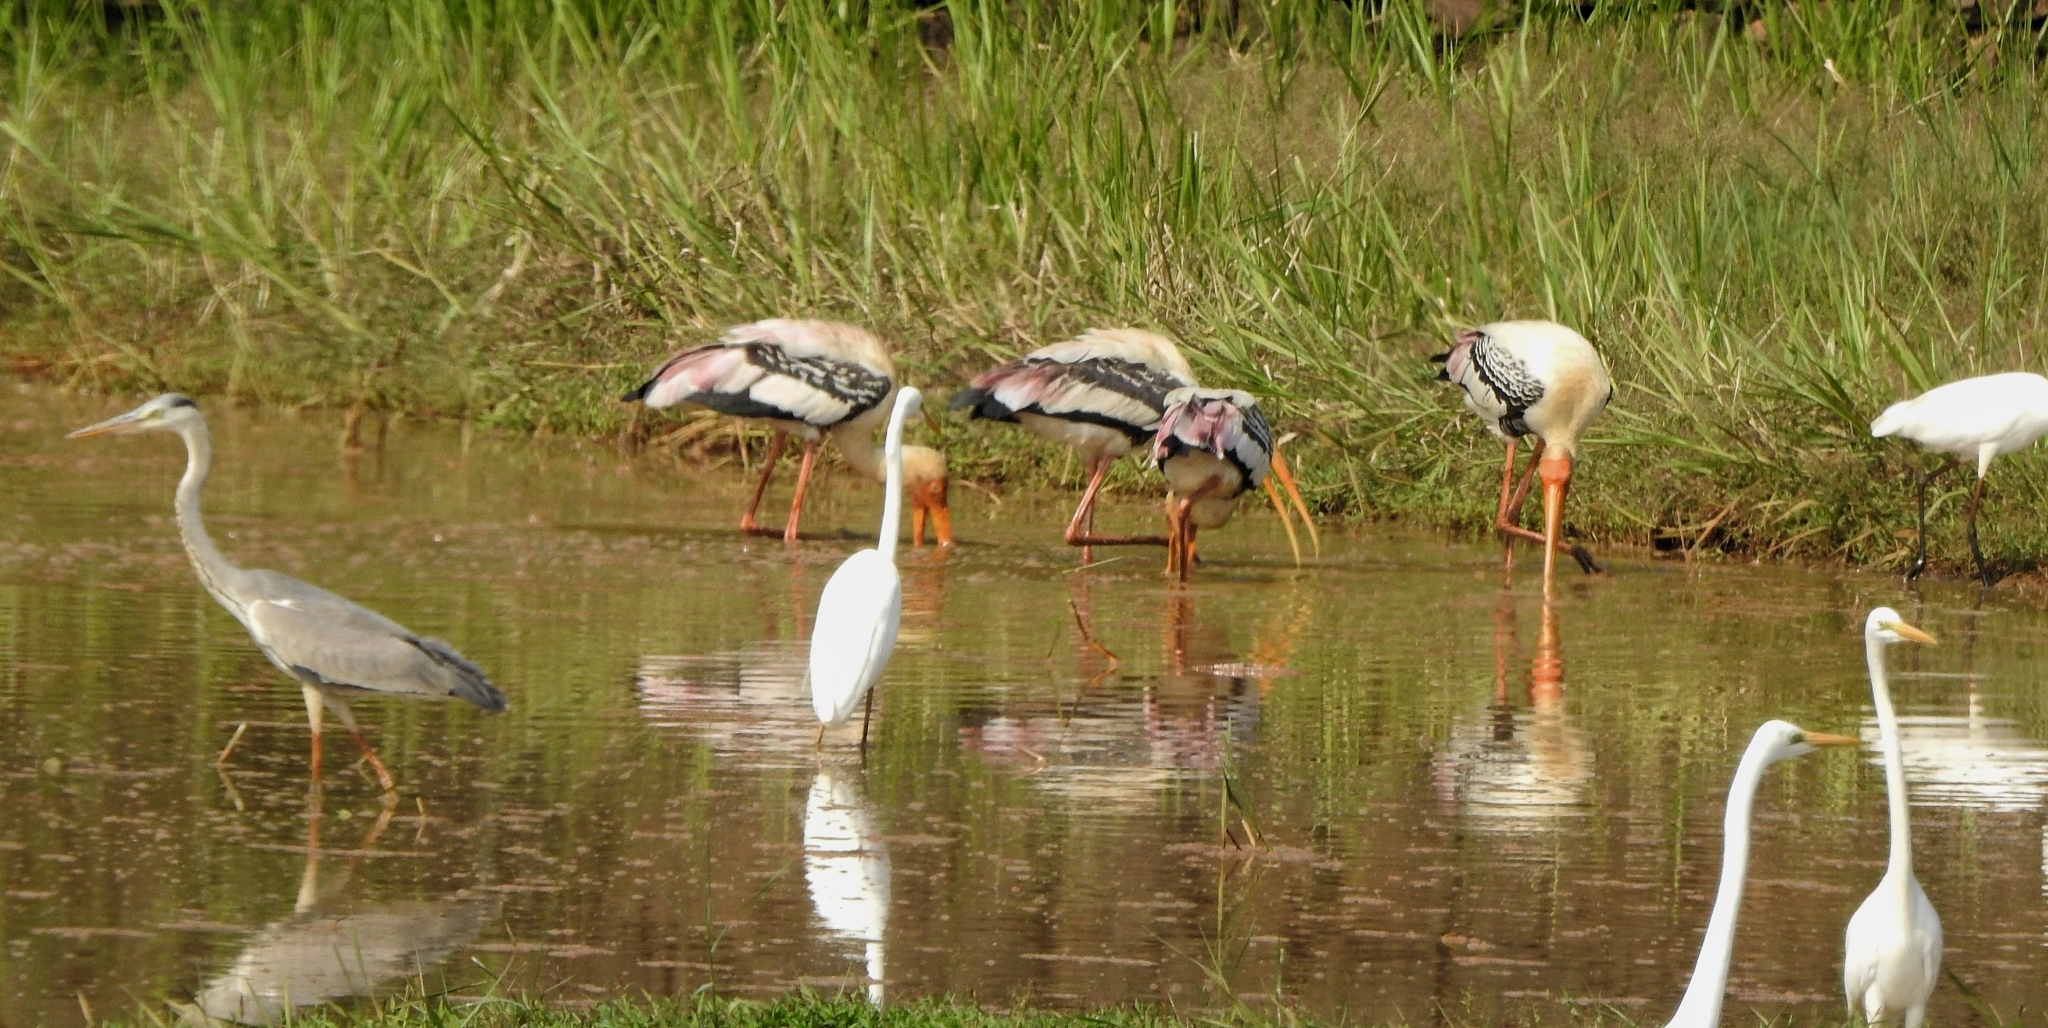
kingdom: Animalia
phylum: Chordata
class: Aves
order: Ciconiiformes
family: Ciconiidae
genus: Mycteria
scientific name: Mycteria leucocephala
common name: Painted stork
